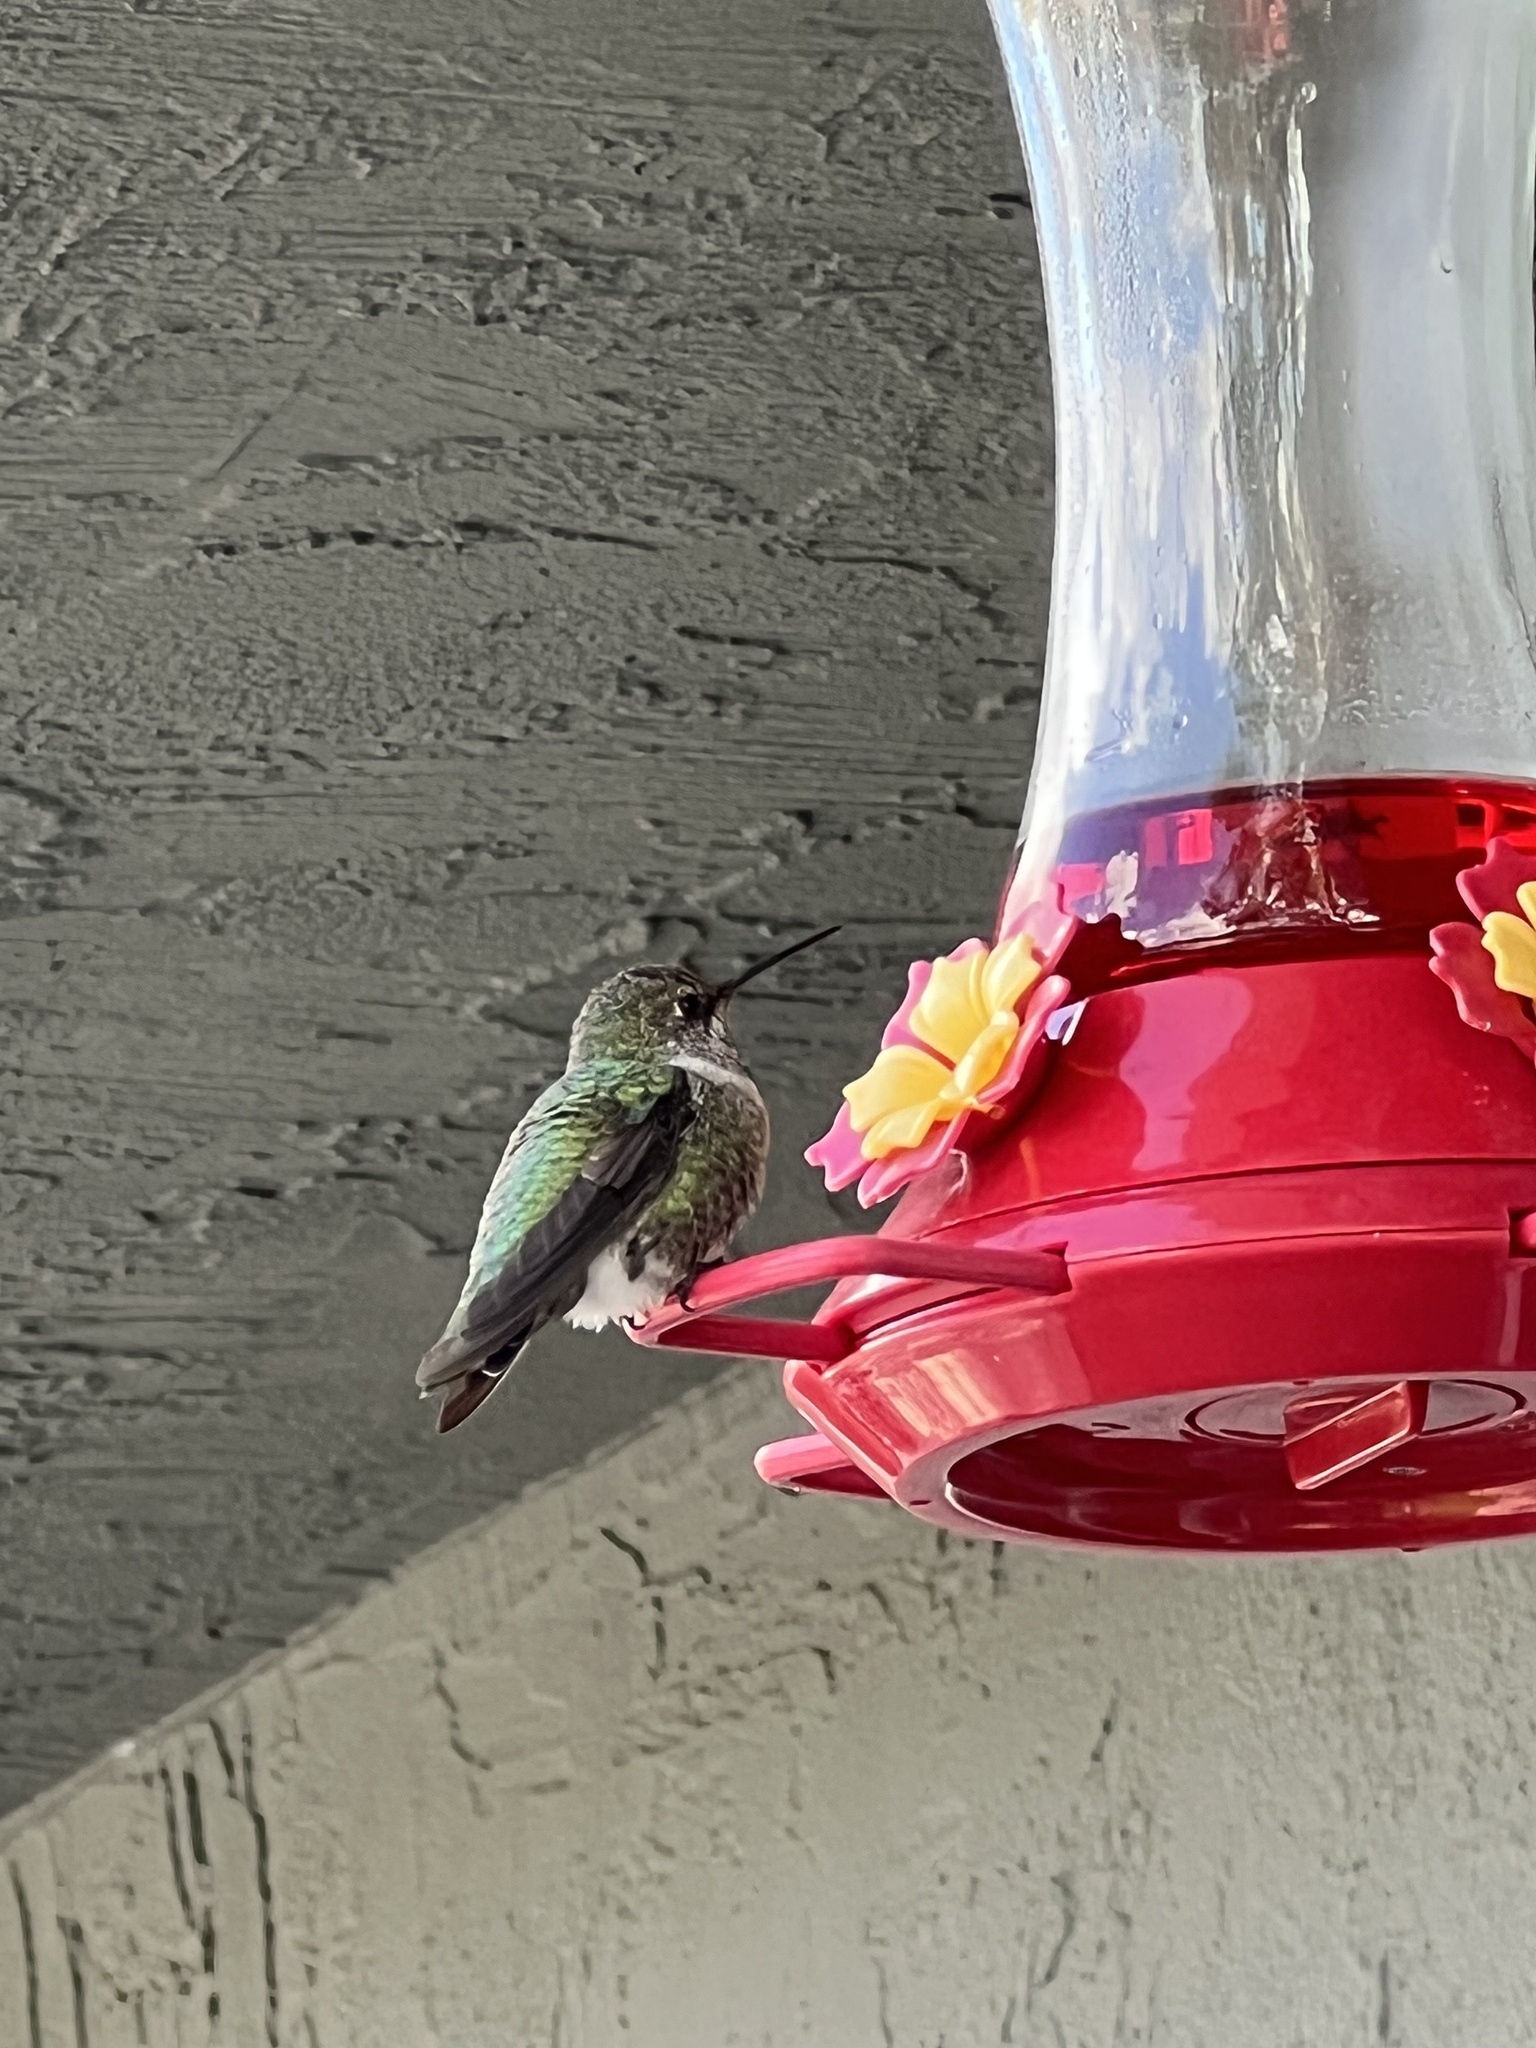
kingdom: Animalia
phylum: Chordata
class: Aves
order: Apodiformes
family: Trochilidae
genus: Calypte
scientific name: Calypte anna
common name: Anna's hummingbird
